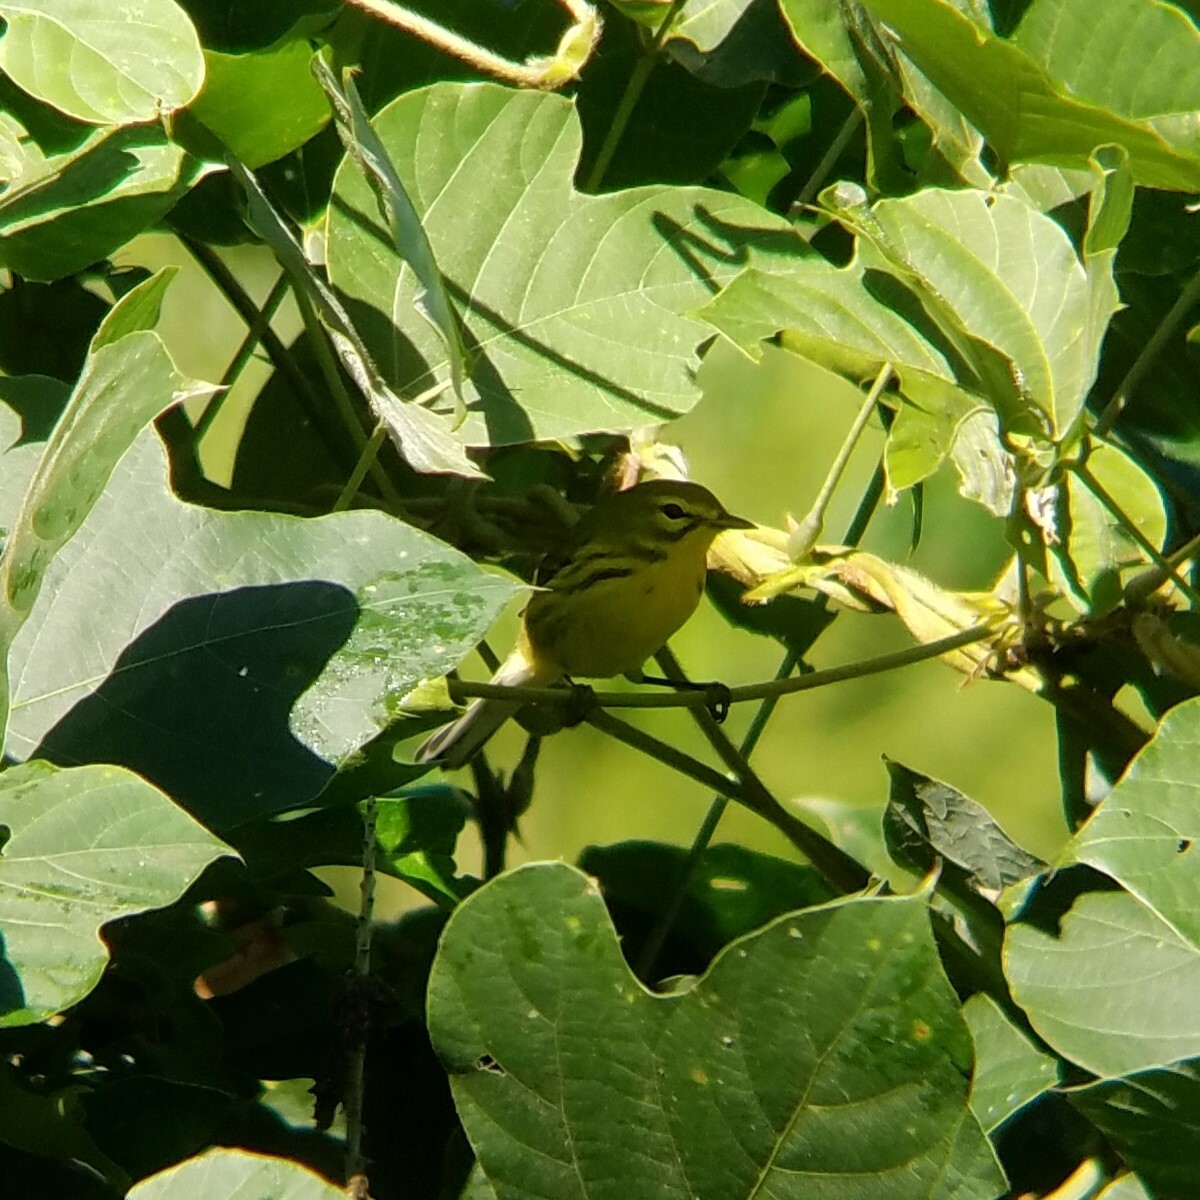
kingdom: Animalia
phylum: Chordata
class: Aves
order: Passeriformes
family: Parulidae
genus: Setophaga
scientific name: Setophaga discolor
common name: Prairie warbler
